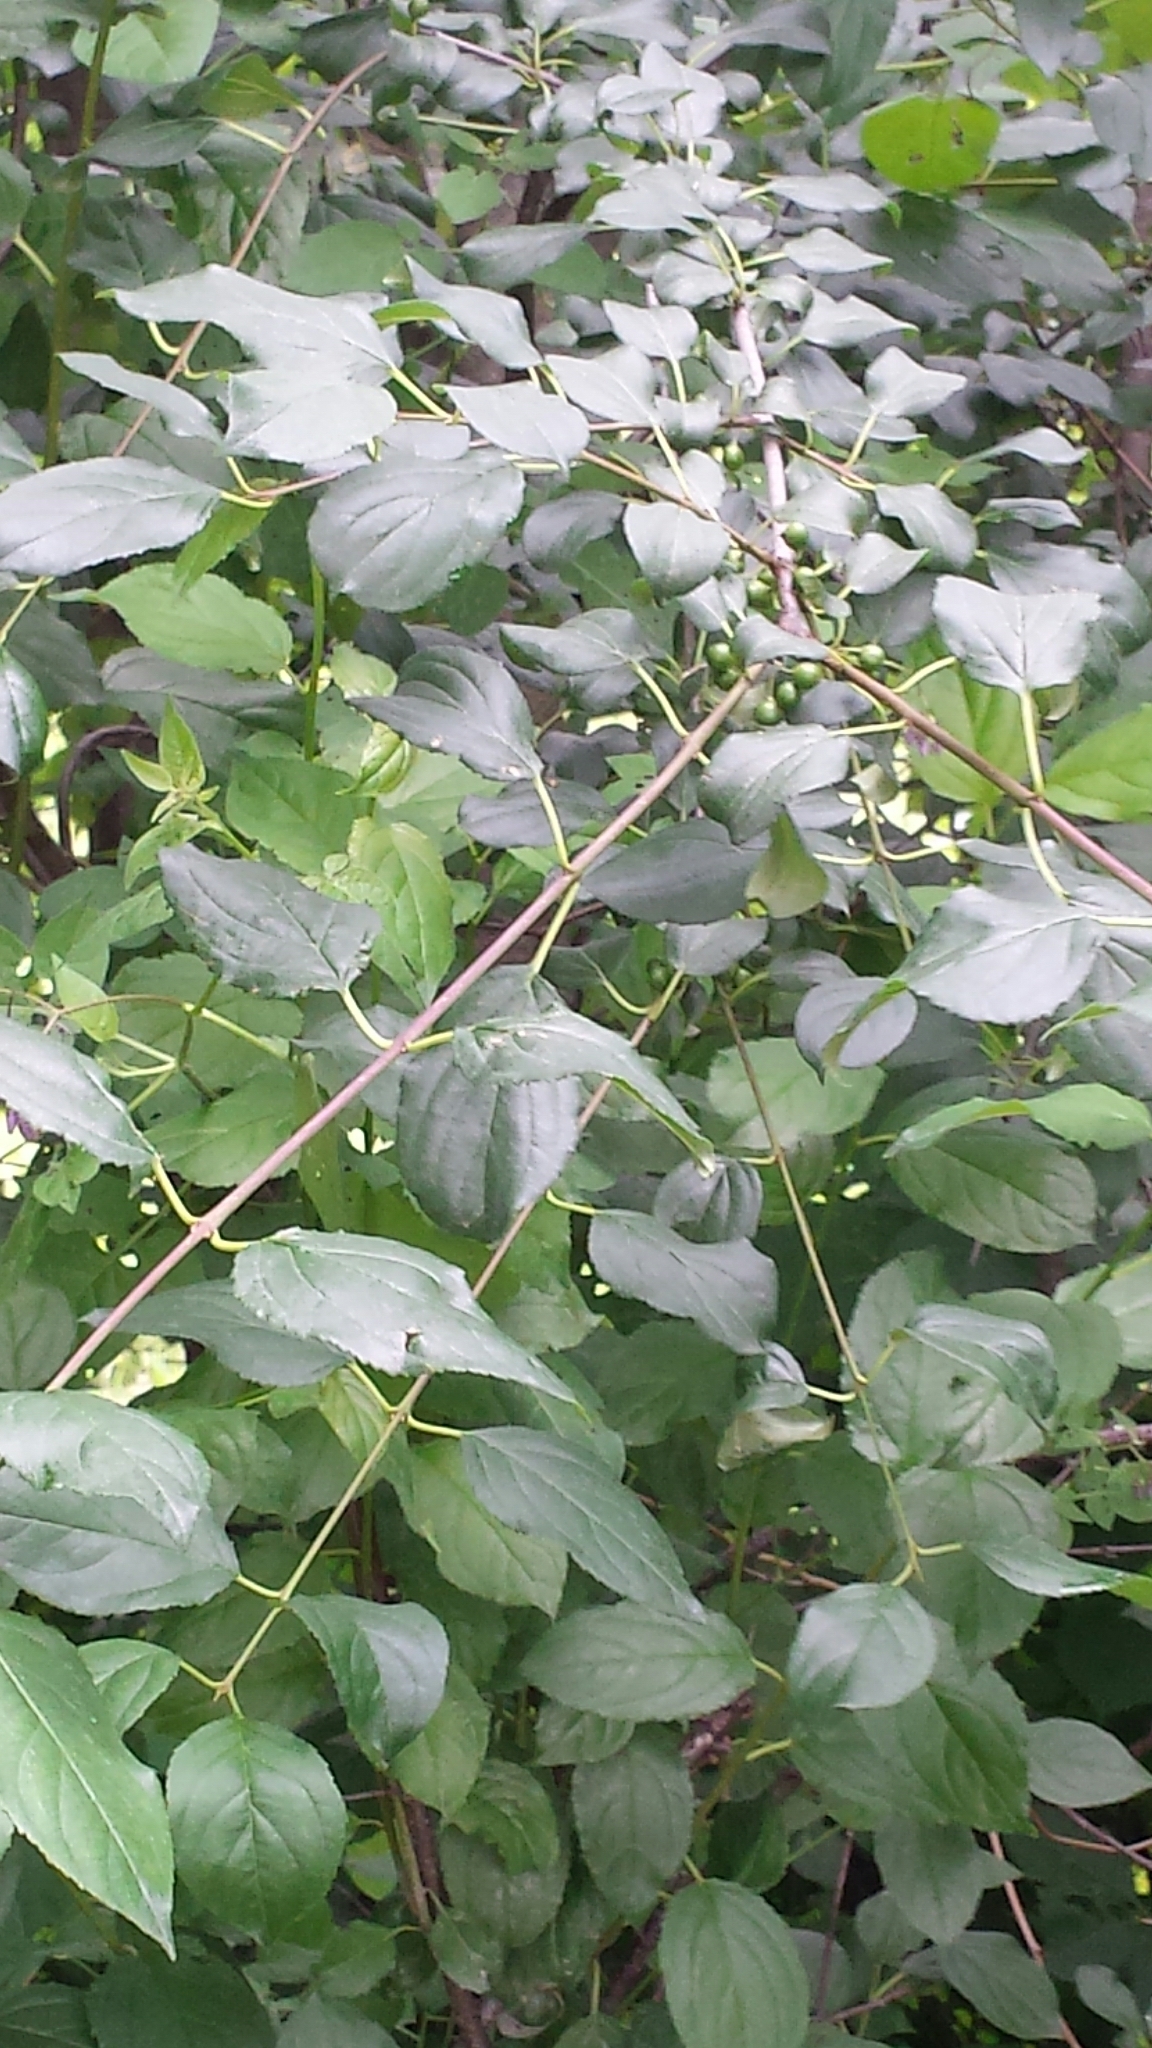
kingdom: Plantae
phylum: Tracheophyta
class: Magnoliopsida
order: Rosales
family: Rhamnaceae
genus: Rhamnus
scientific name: Rhamnus cathartica
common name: Common buckthorn
